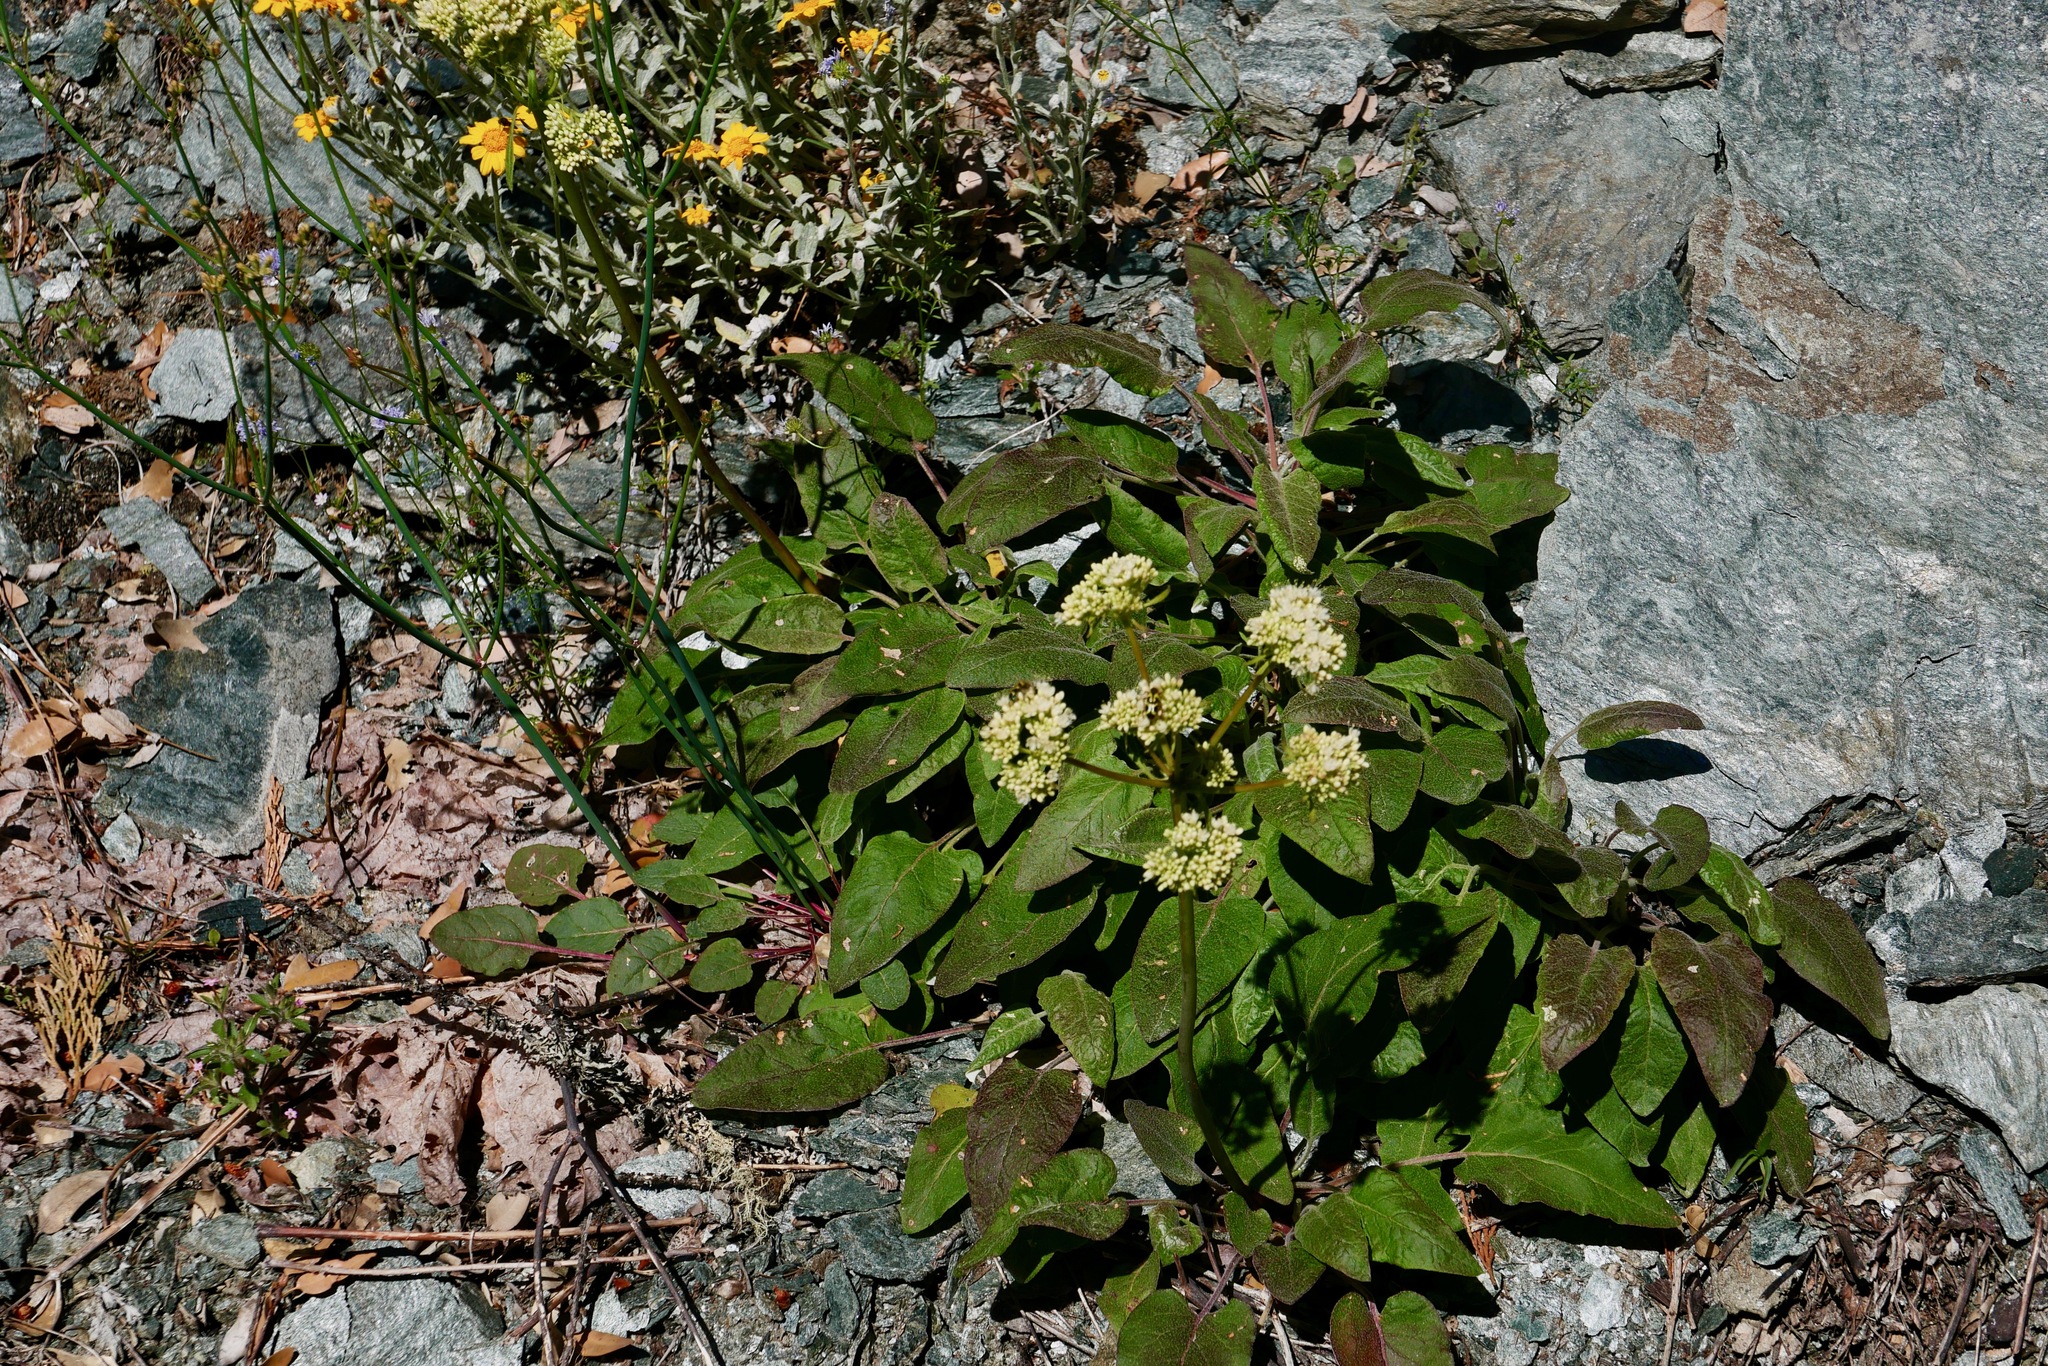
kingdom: Plantae
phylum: Tracheophyta
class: Magnoliopsida
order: Caryophyllales
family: Polygonaceae
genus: Eriogonum
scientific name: Eriogonum compositum
